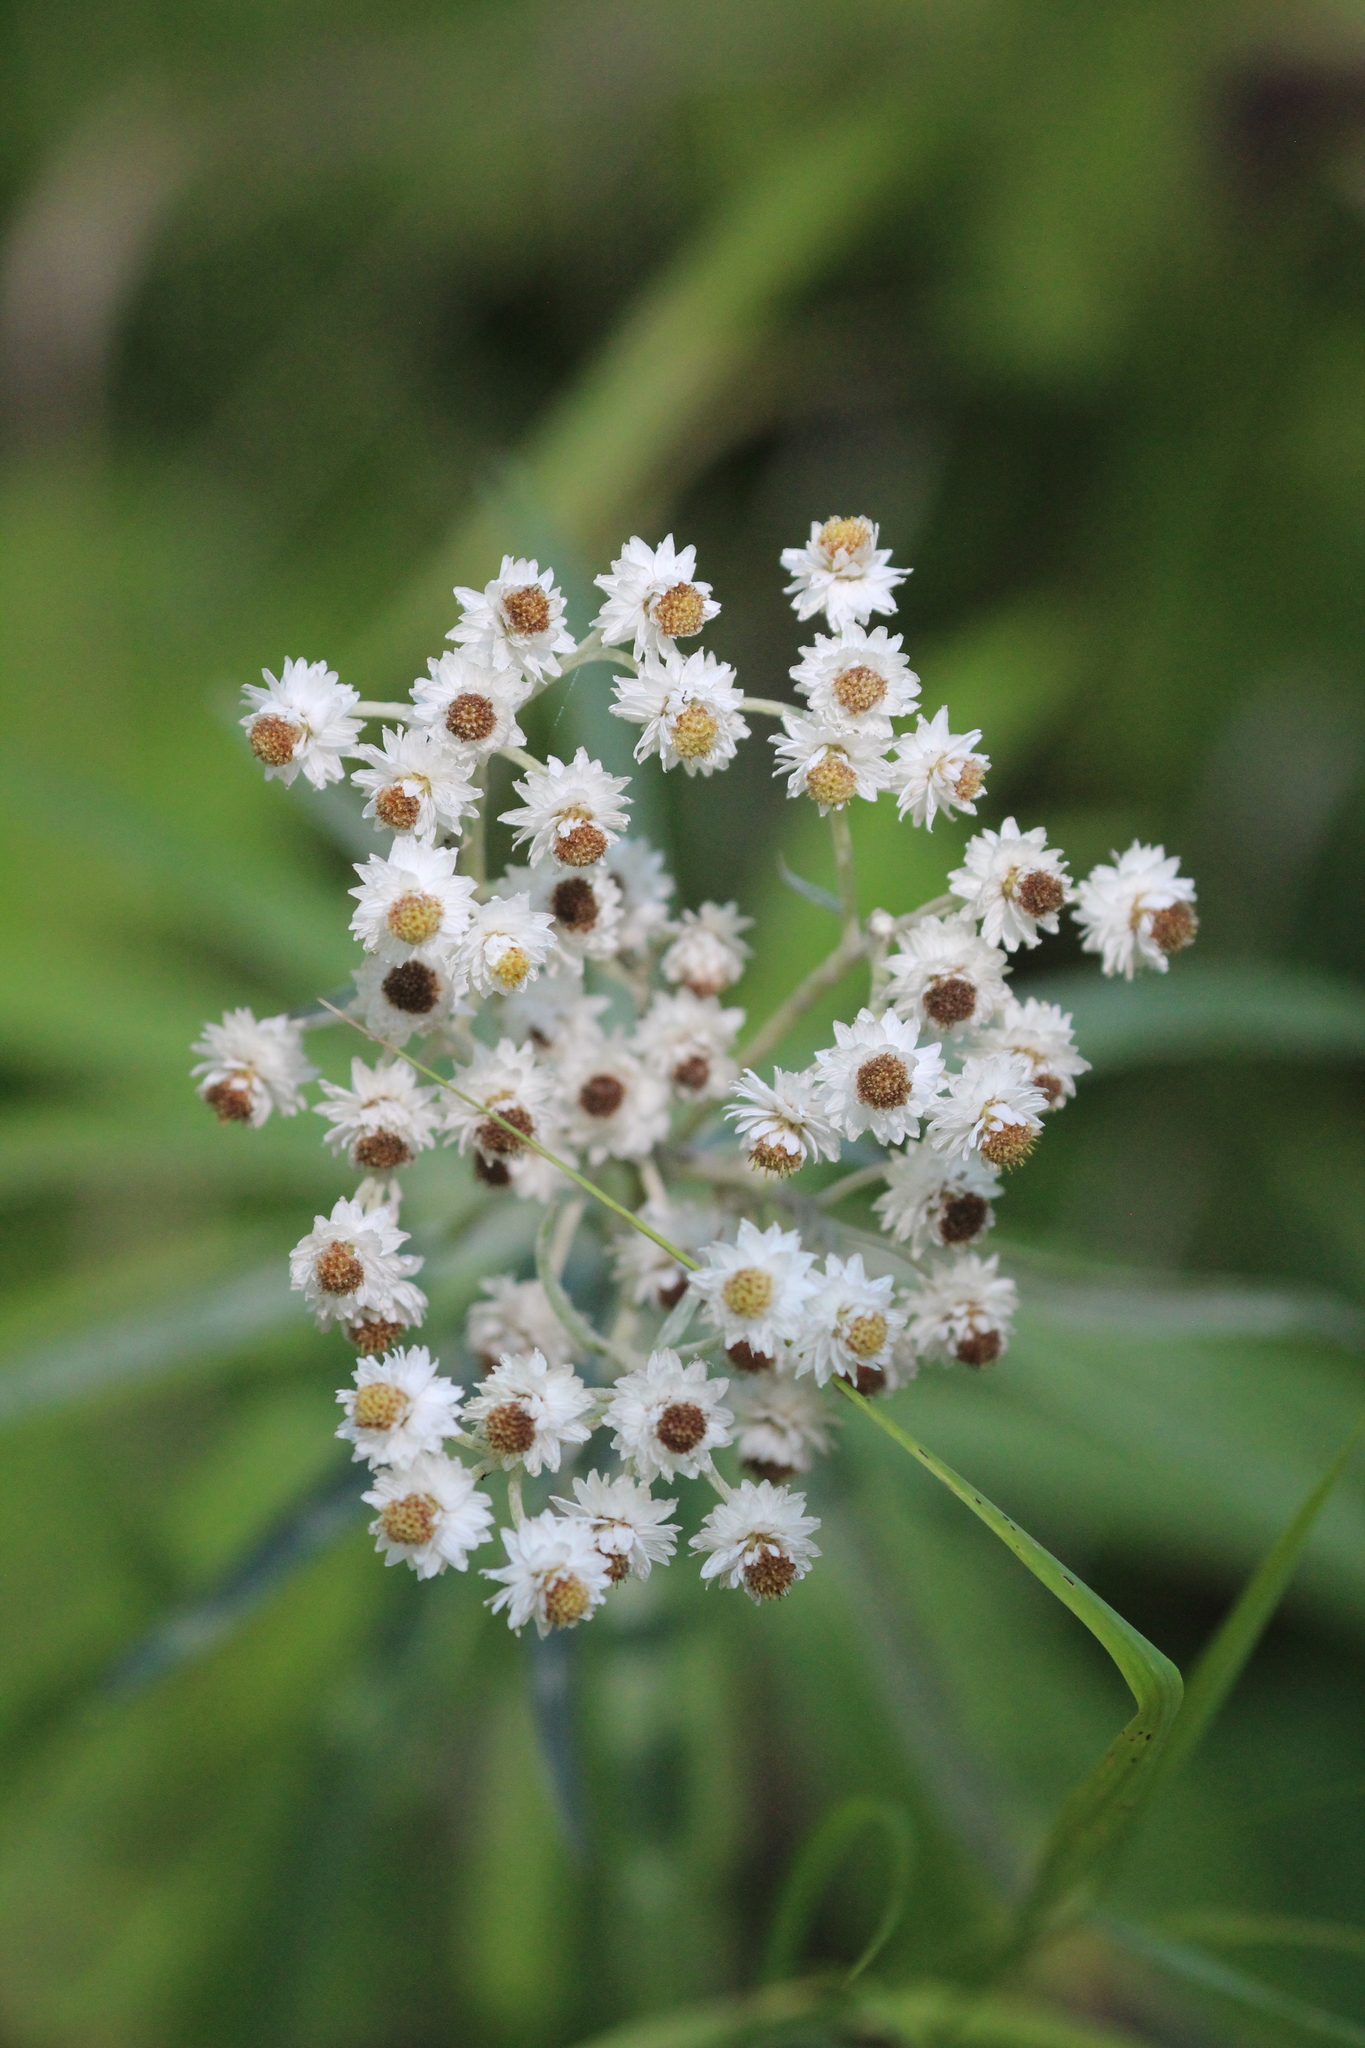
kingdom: Plantae
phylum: Tracheophyta
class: Magnoliopsida
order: Asterales
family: Asteraceae
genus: Anaphalis
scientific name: Anaphalis margaritacea
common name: Pearly everlasting
